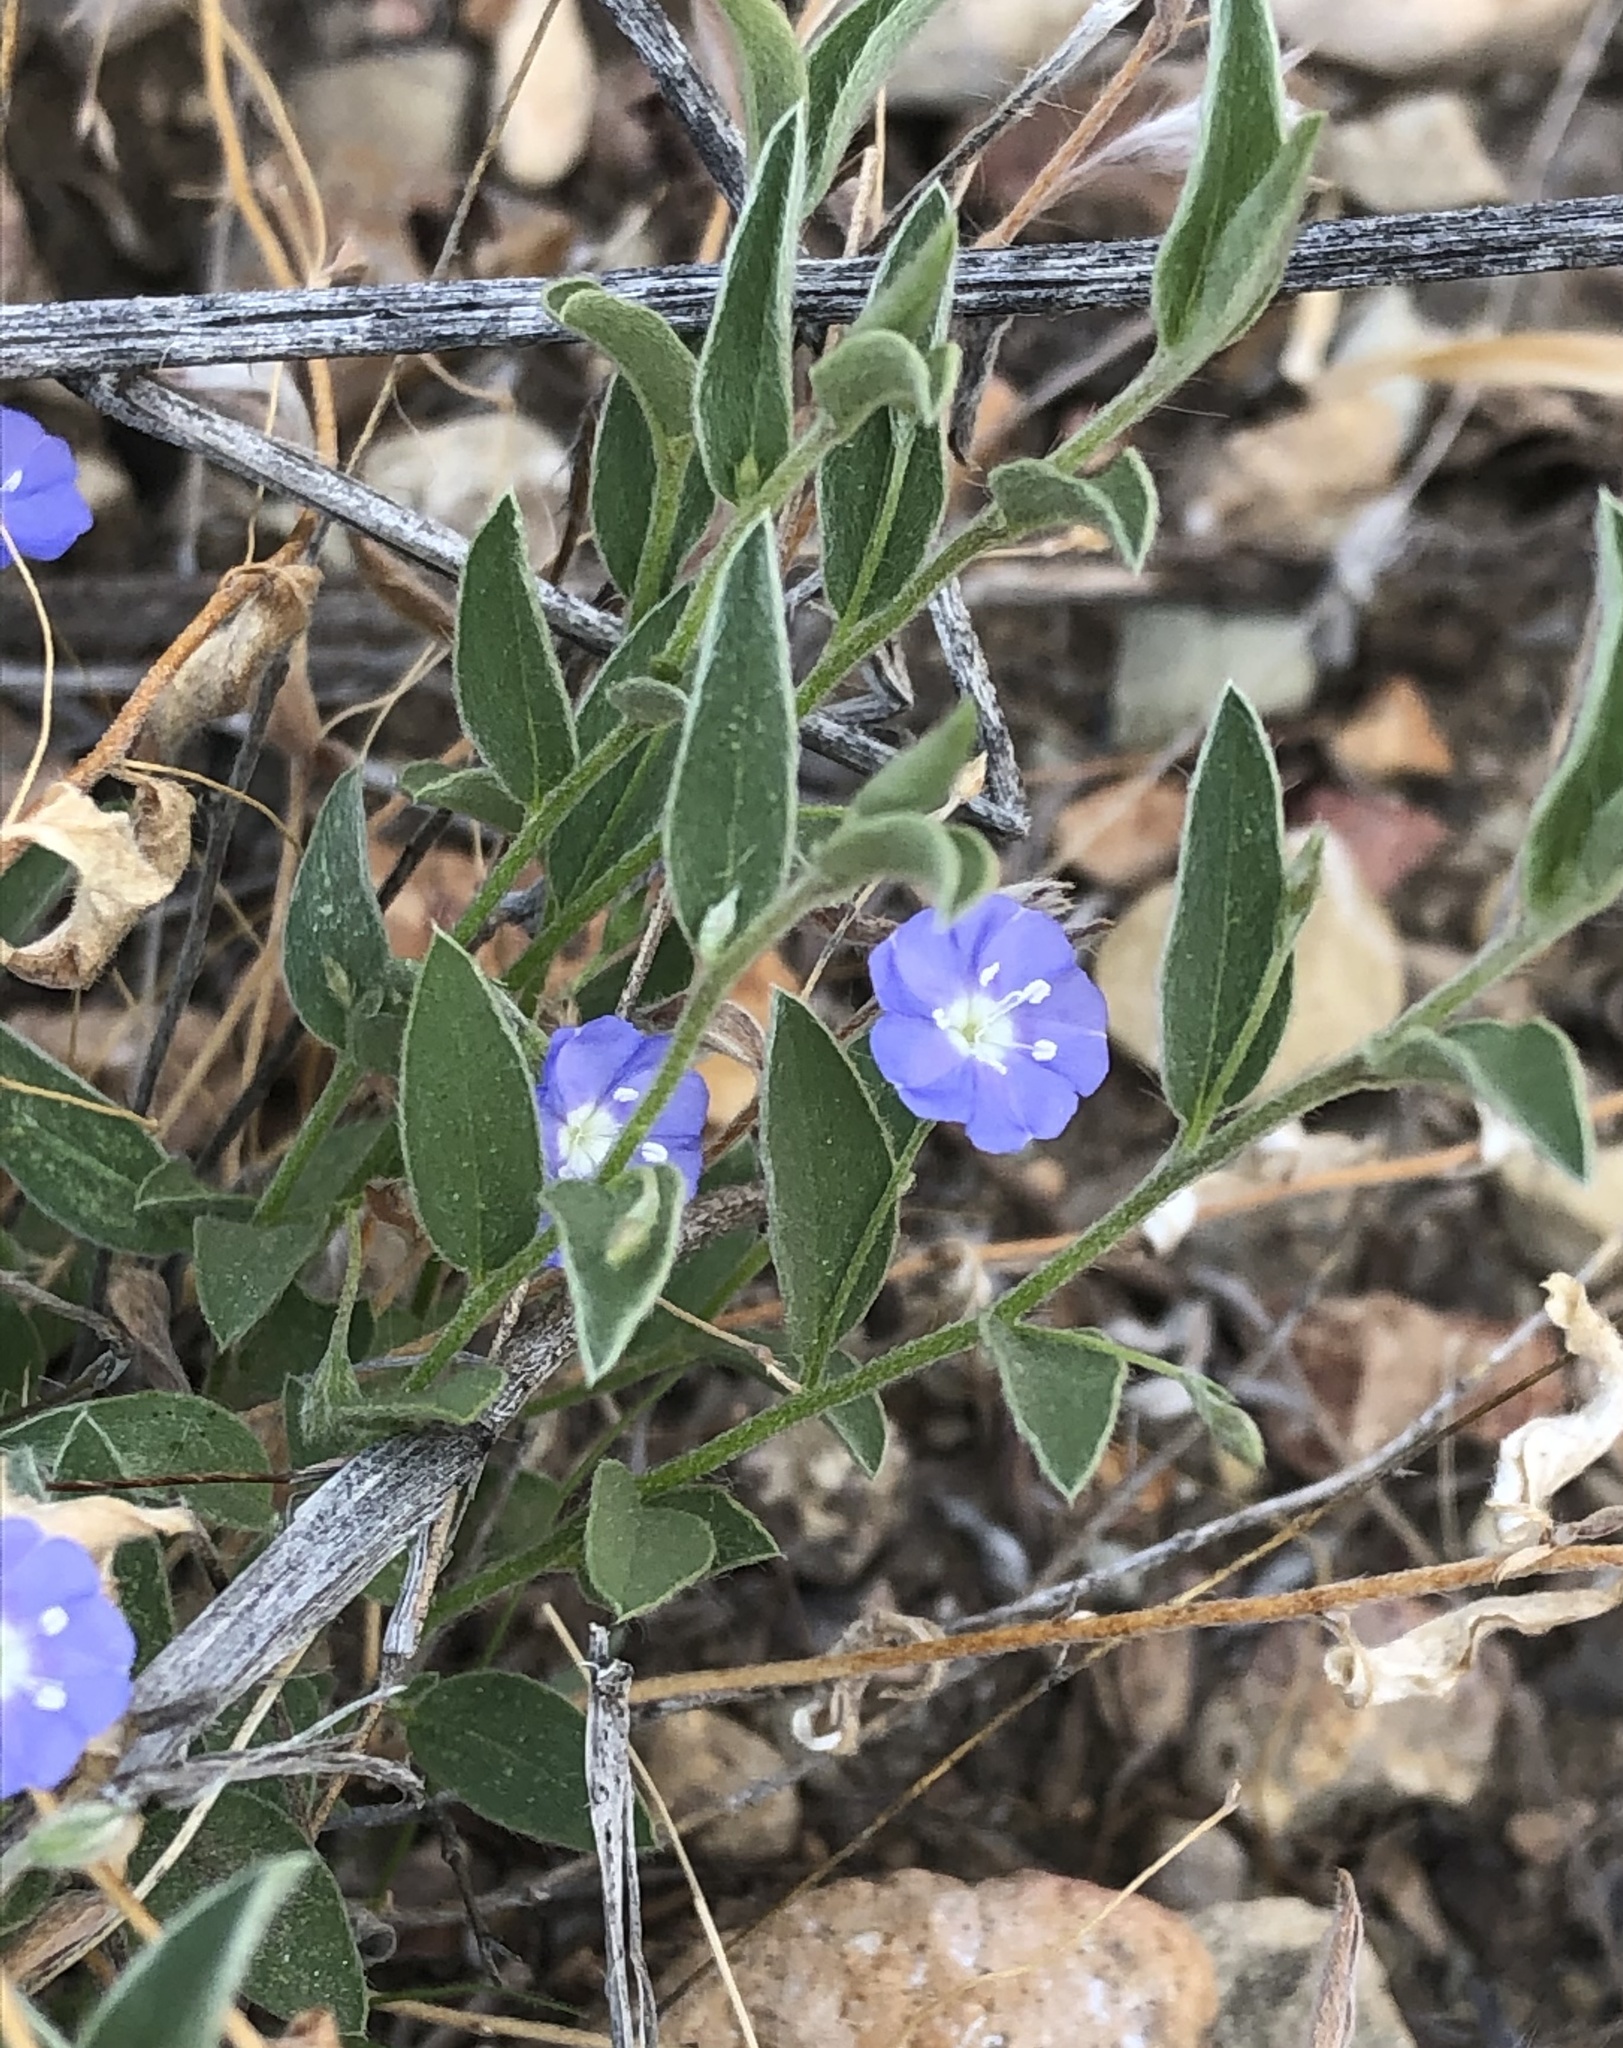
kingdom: Plantae
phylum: Tracheophyta
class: Magnoliopsida
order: Solanales
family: Convolvulaceae
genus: Evolvulus
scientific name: Evolvulus alsinoides
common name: Slender dwarf morning-glory
